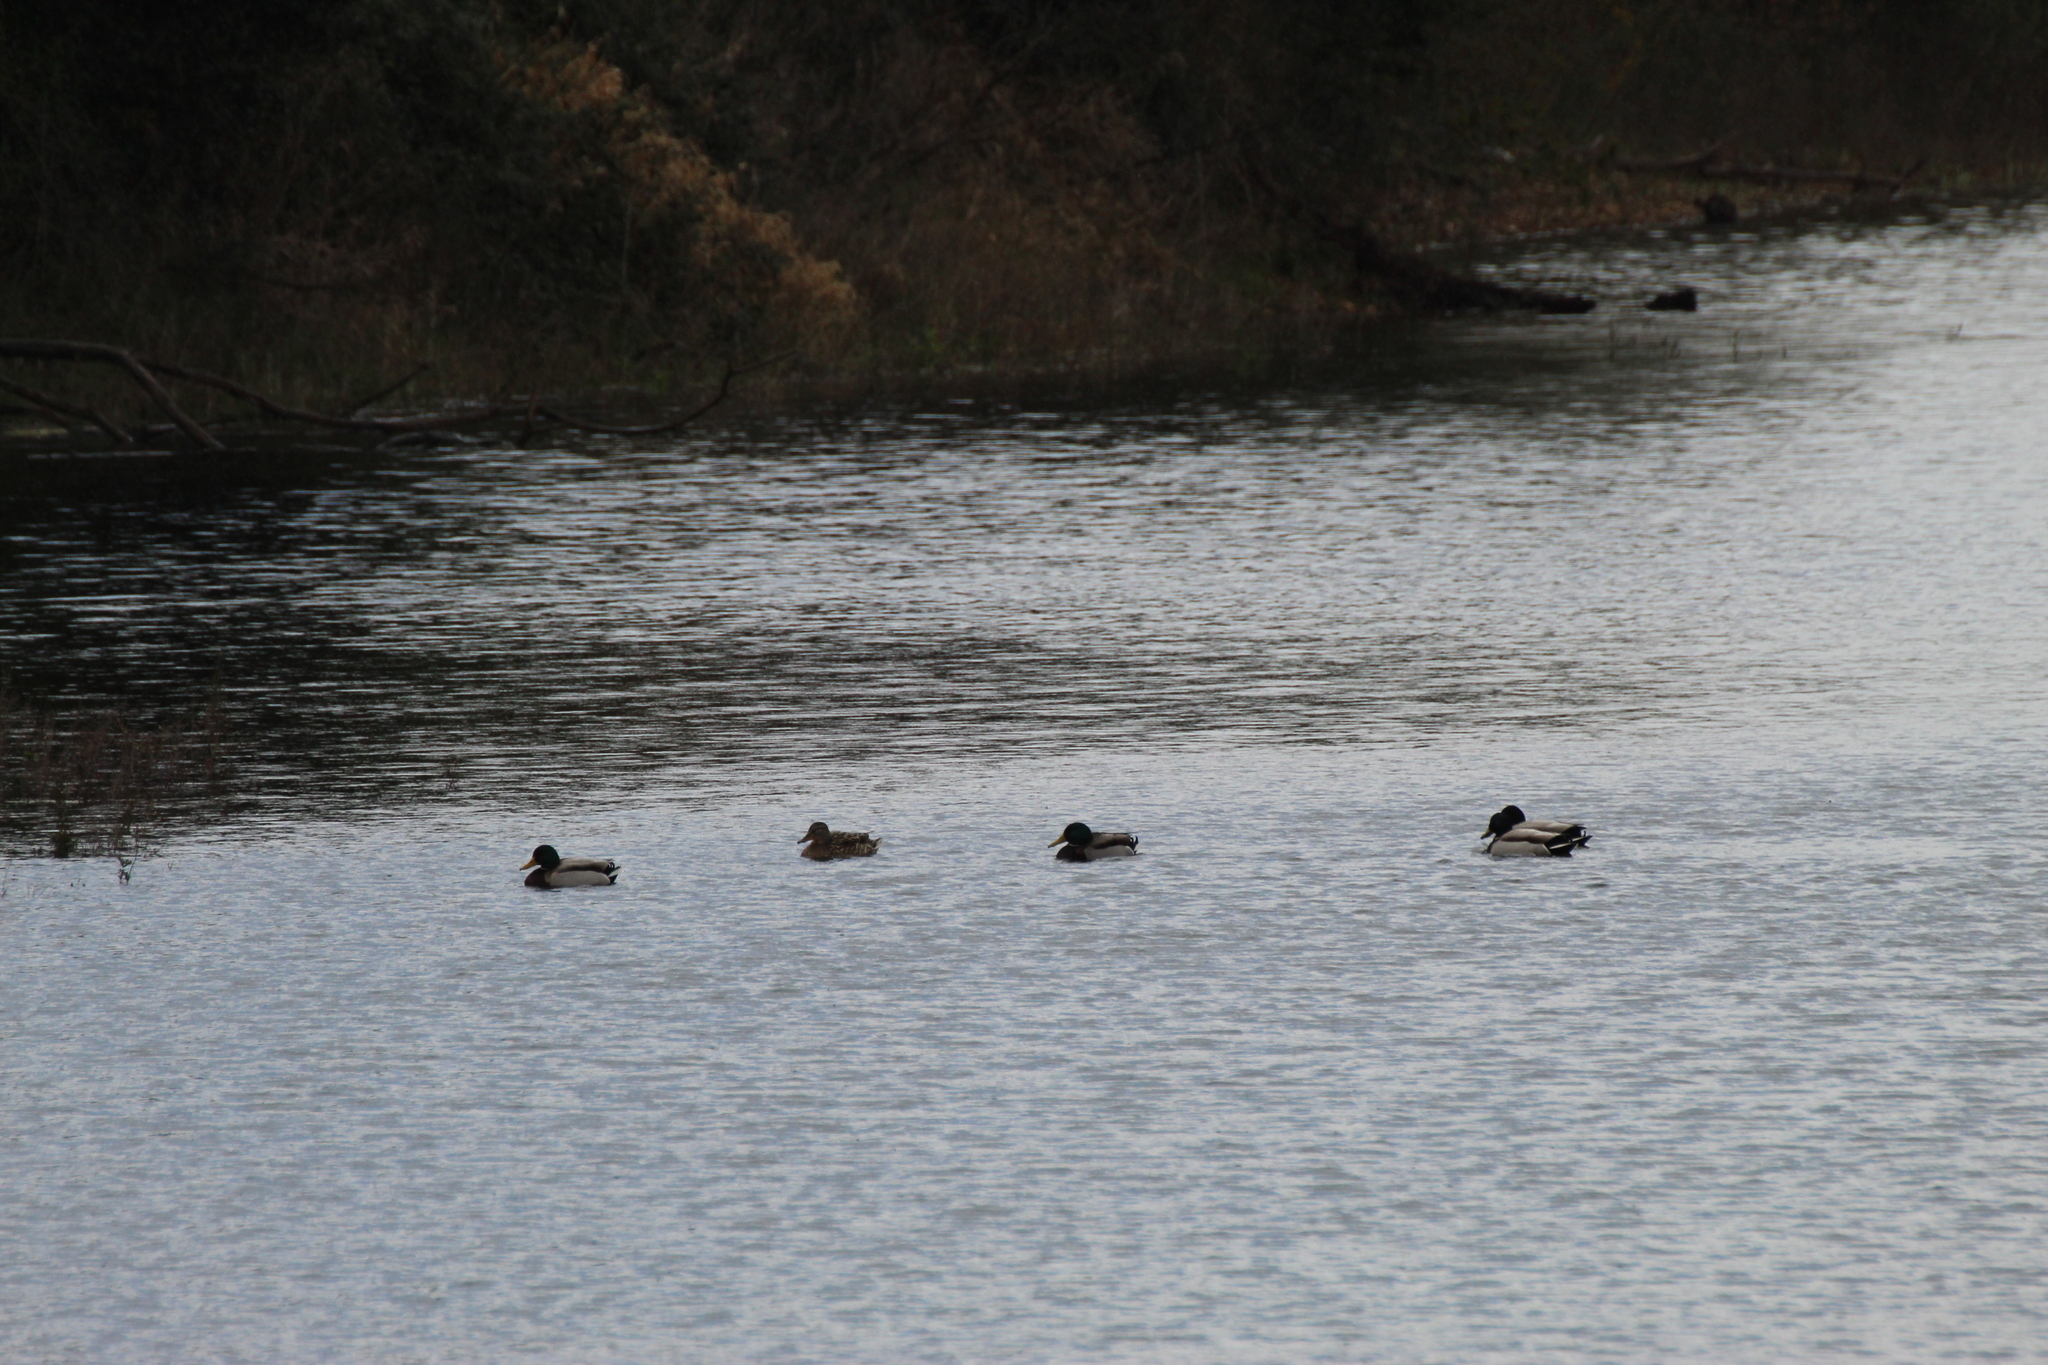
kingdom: Animalia
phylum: Chordata
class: Aves
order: Anseriformes
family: Anatidae
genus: Anas
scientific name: Anas platyrhynchos
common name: Mallard
